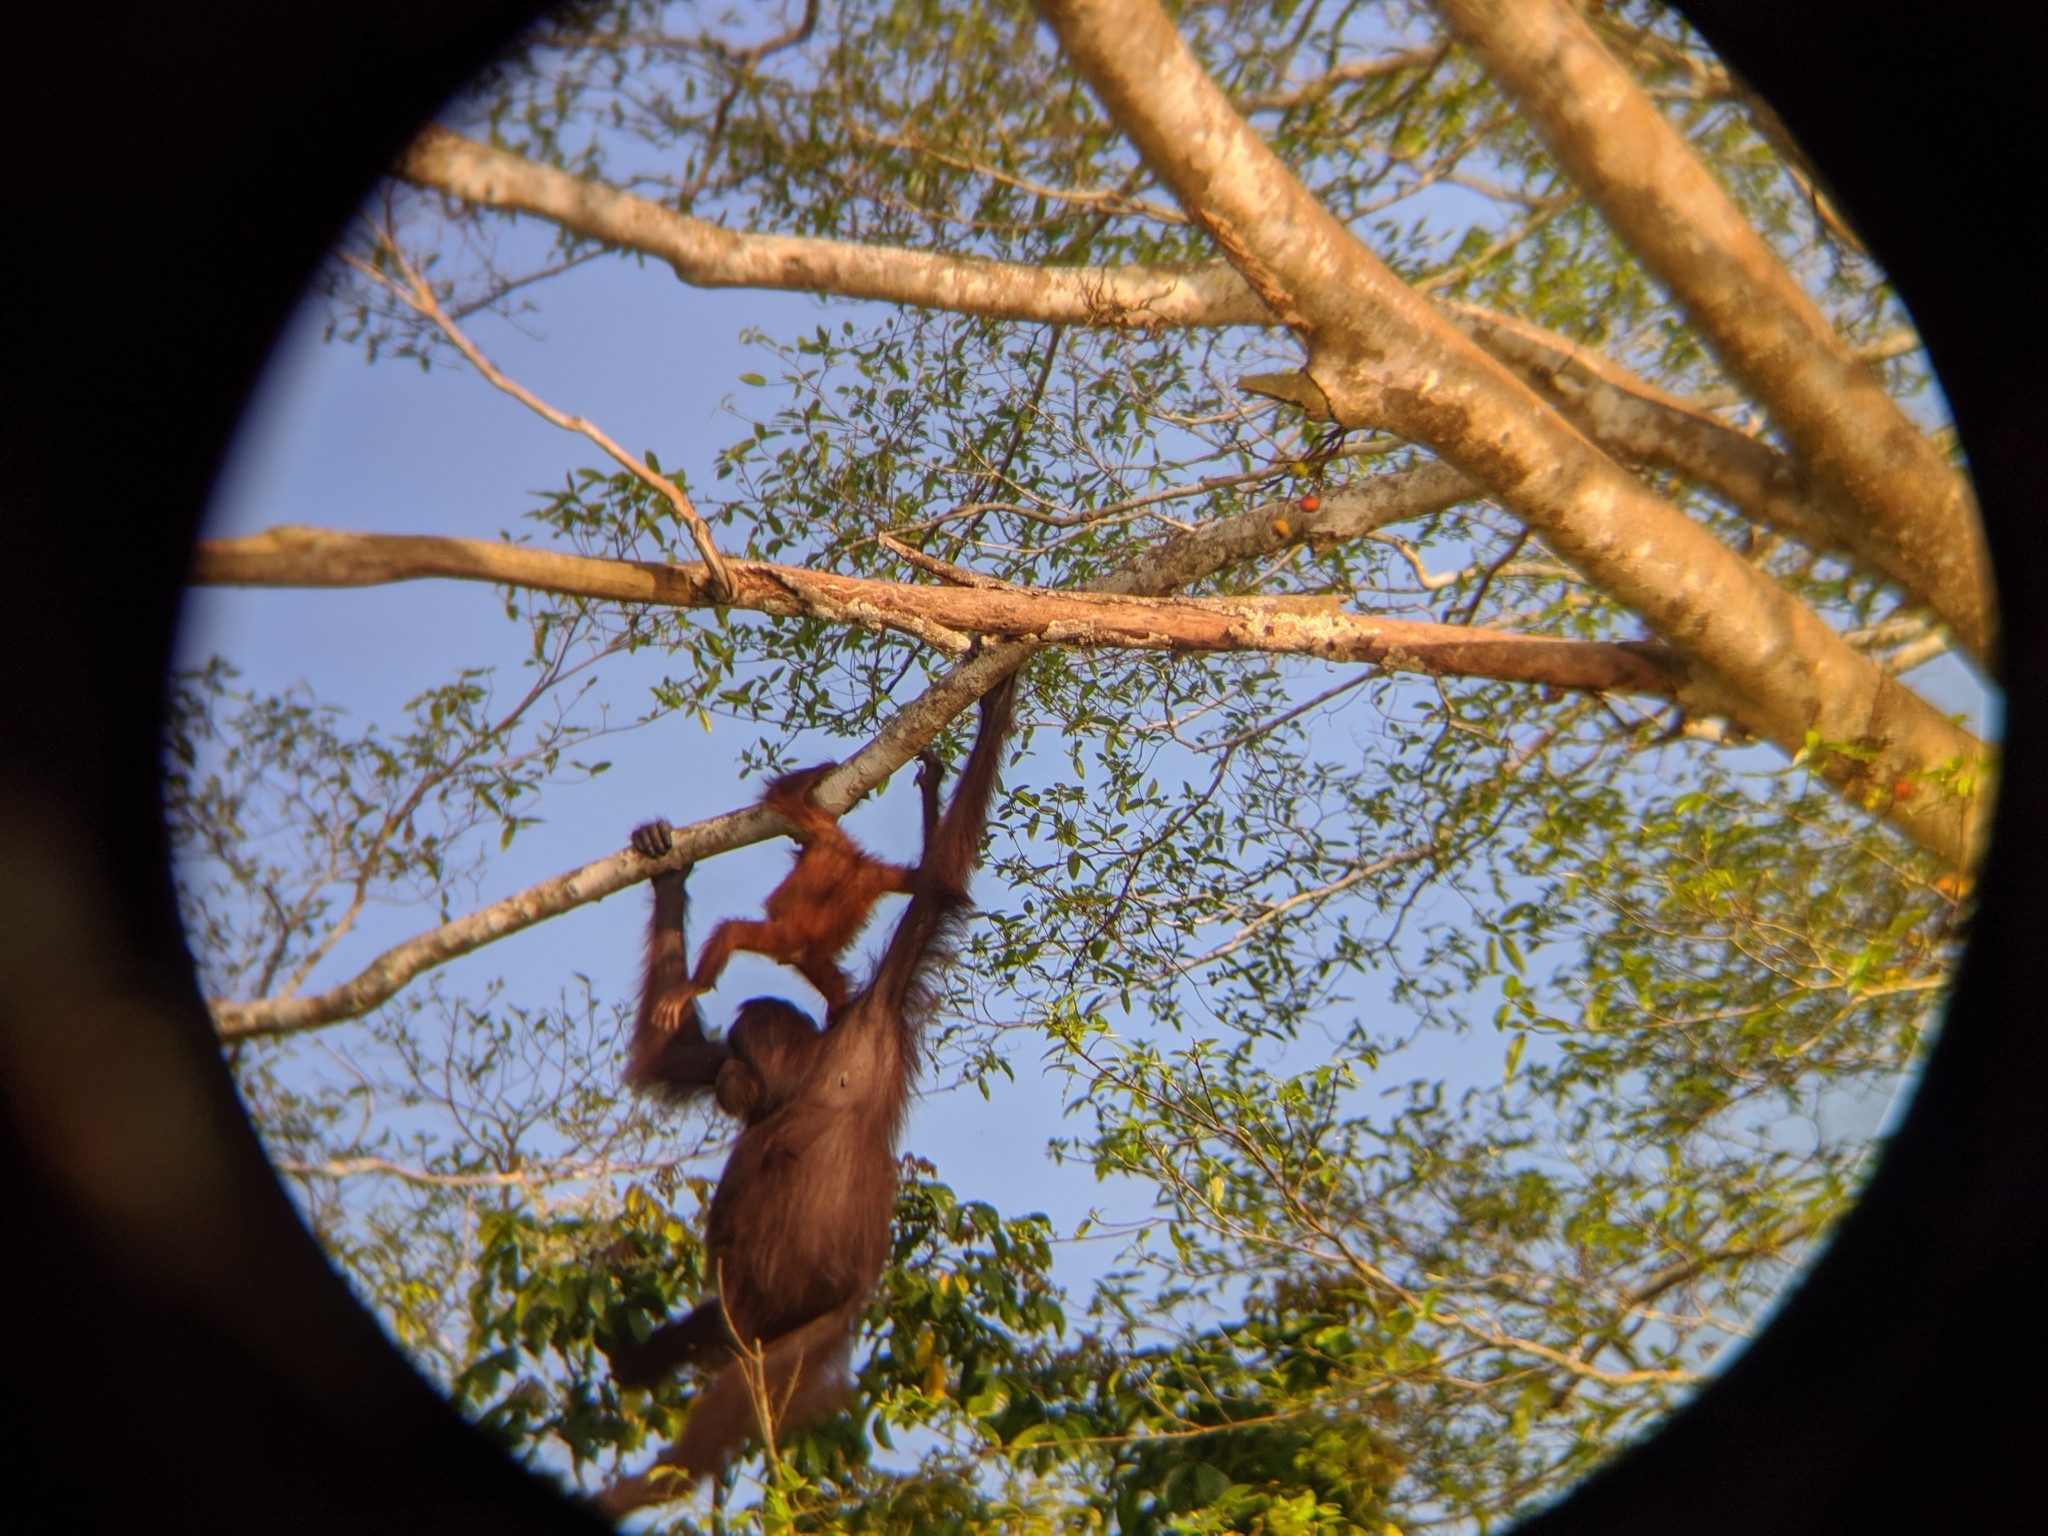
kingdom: Animalia
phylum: Chordata
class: Mammalia
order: Primates
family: Hominidae
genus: Pongo
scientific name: Pongo pygmaeus
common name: Bornean orangutan
